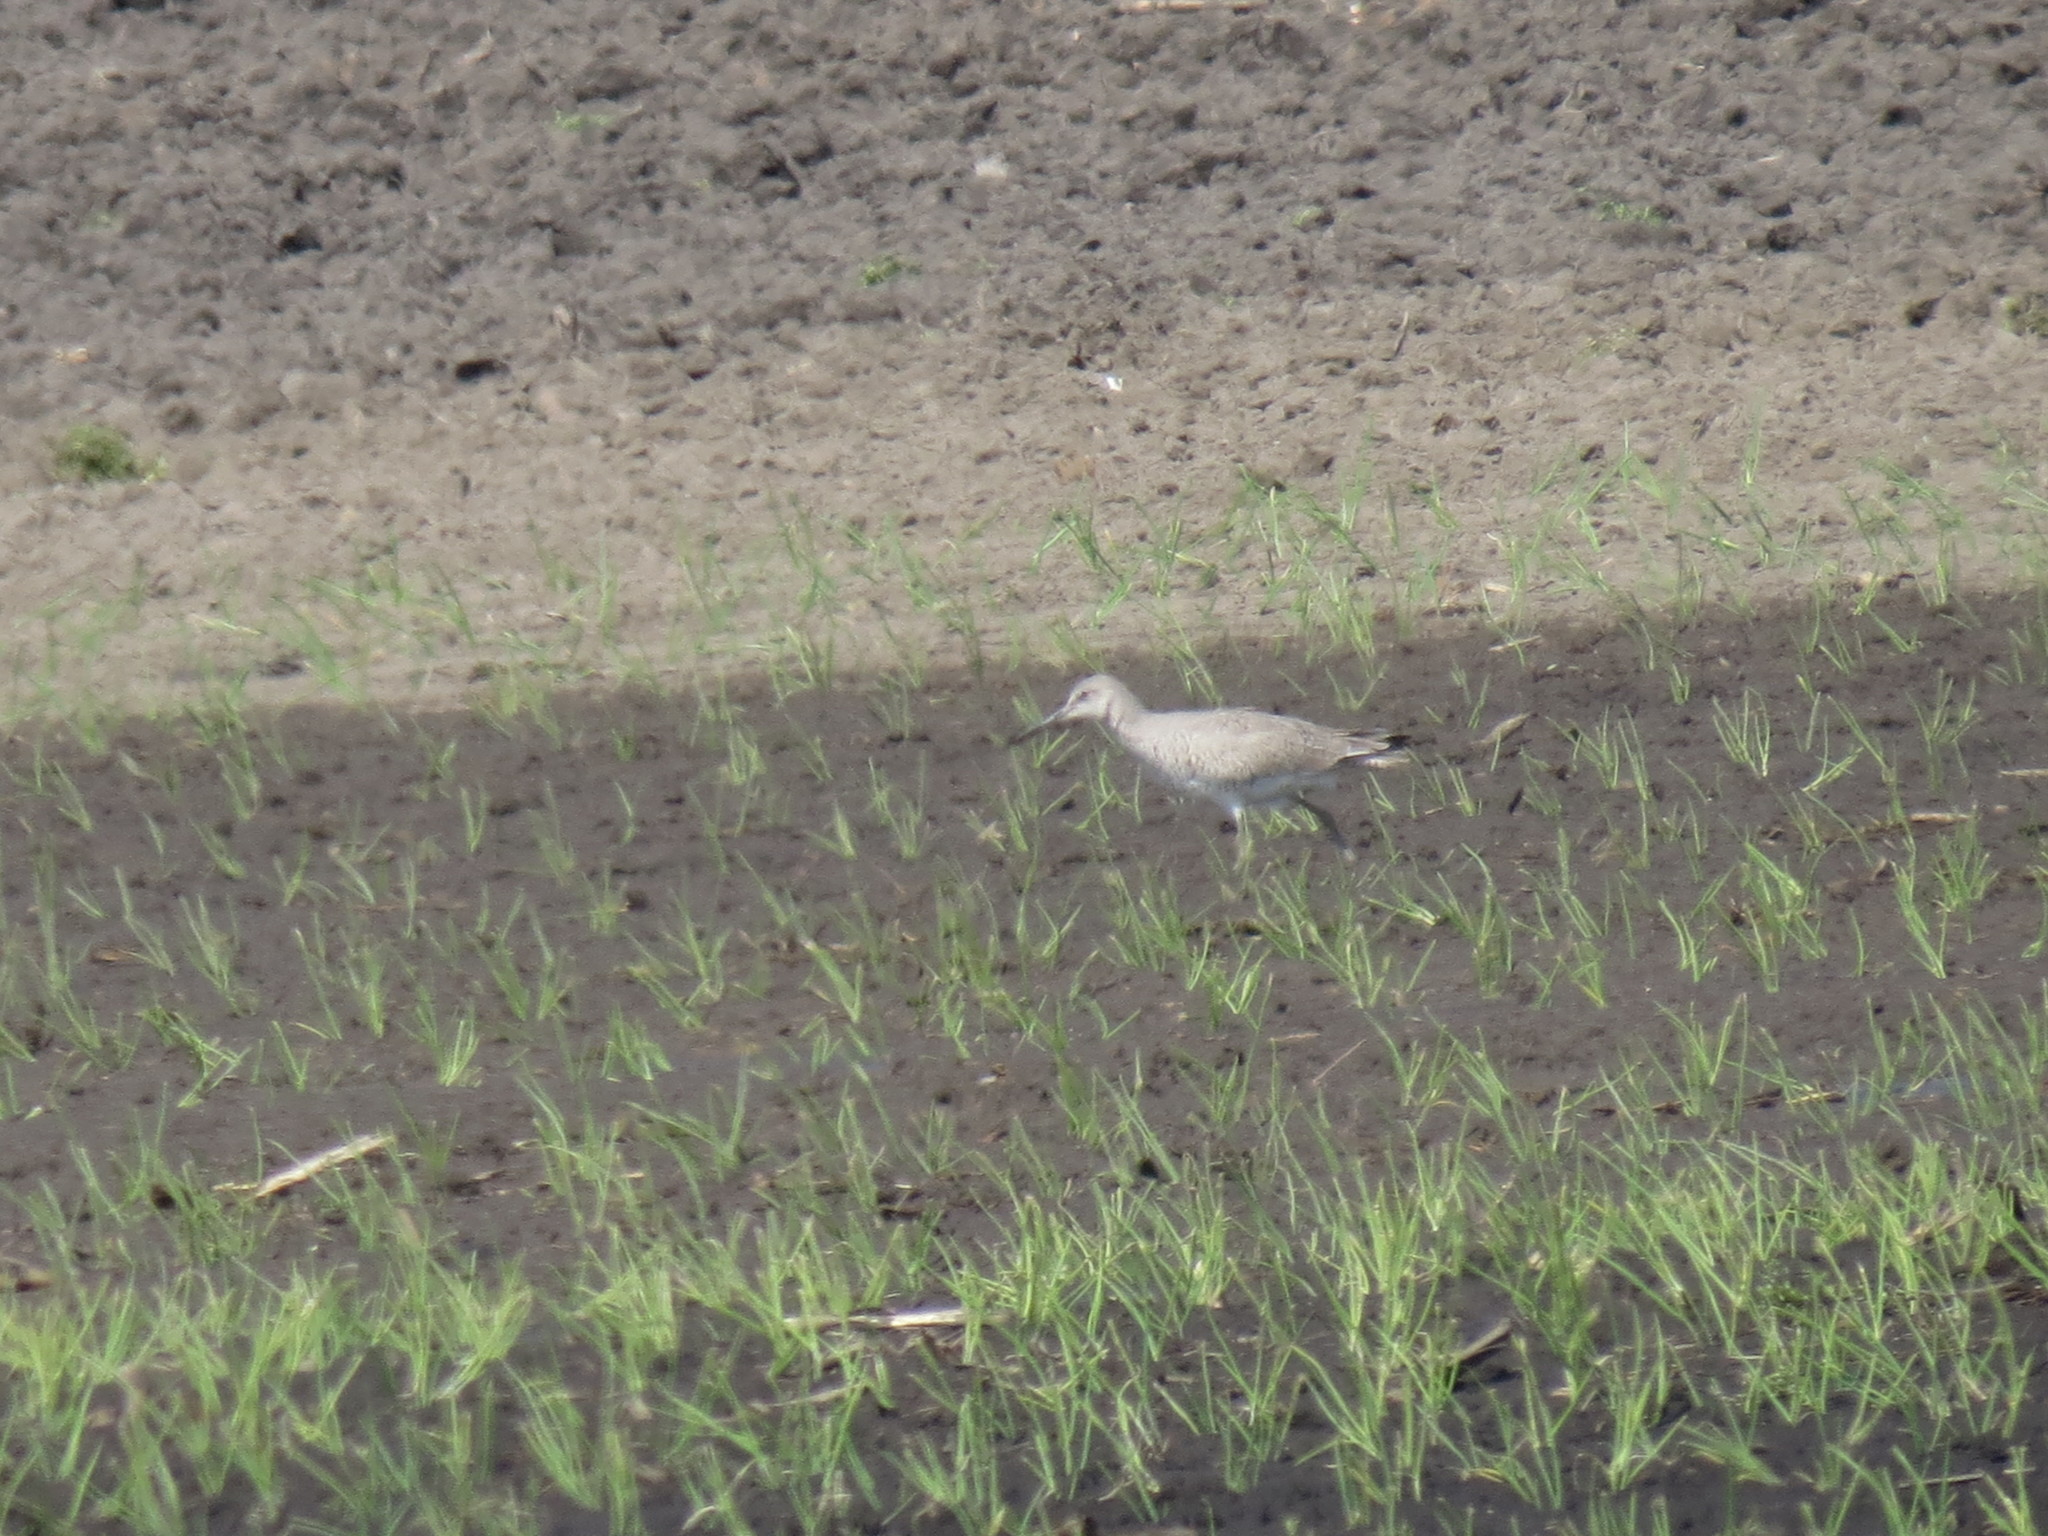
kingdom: Animalia
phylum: Chordata
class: Aves
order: Charadriiformes
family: Scolopacidae
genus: Tringa
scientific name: Tringa semipalmata
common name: Willet
